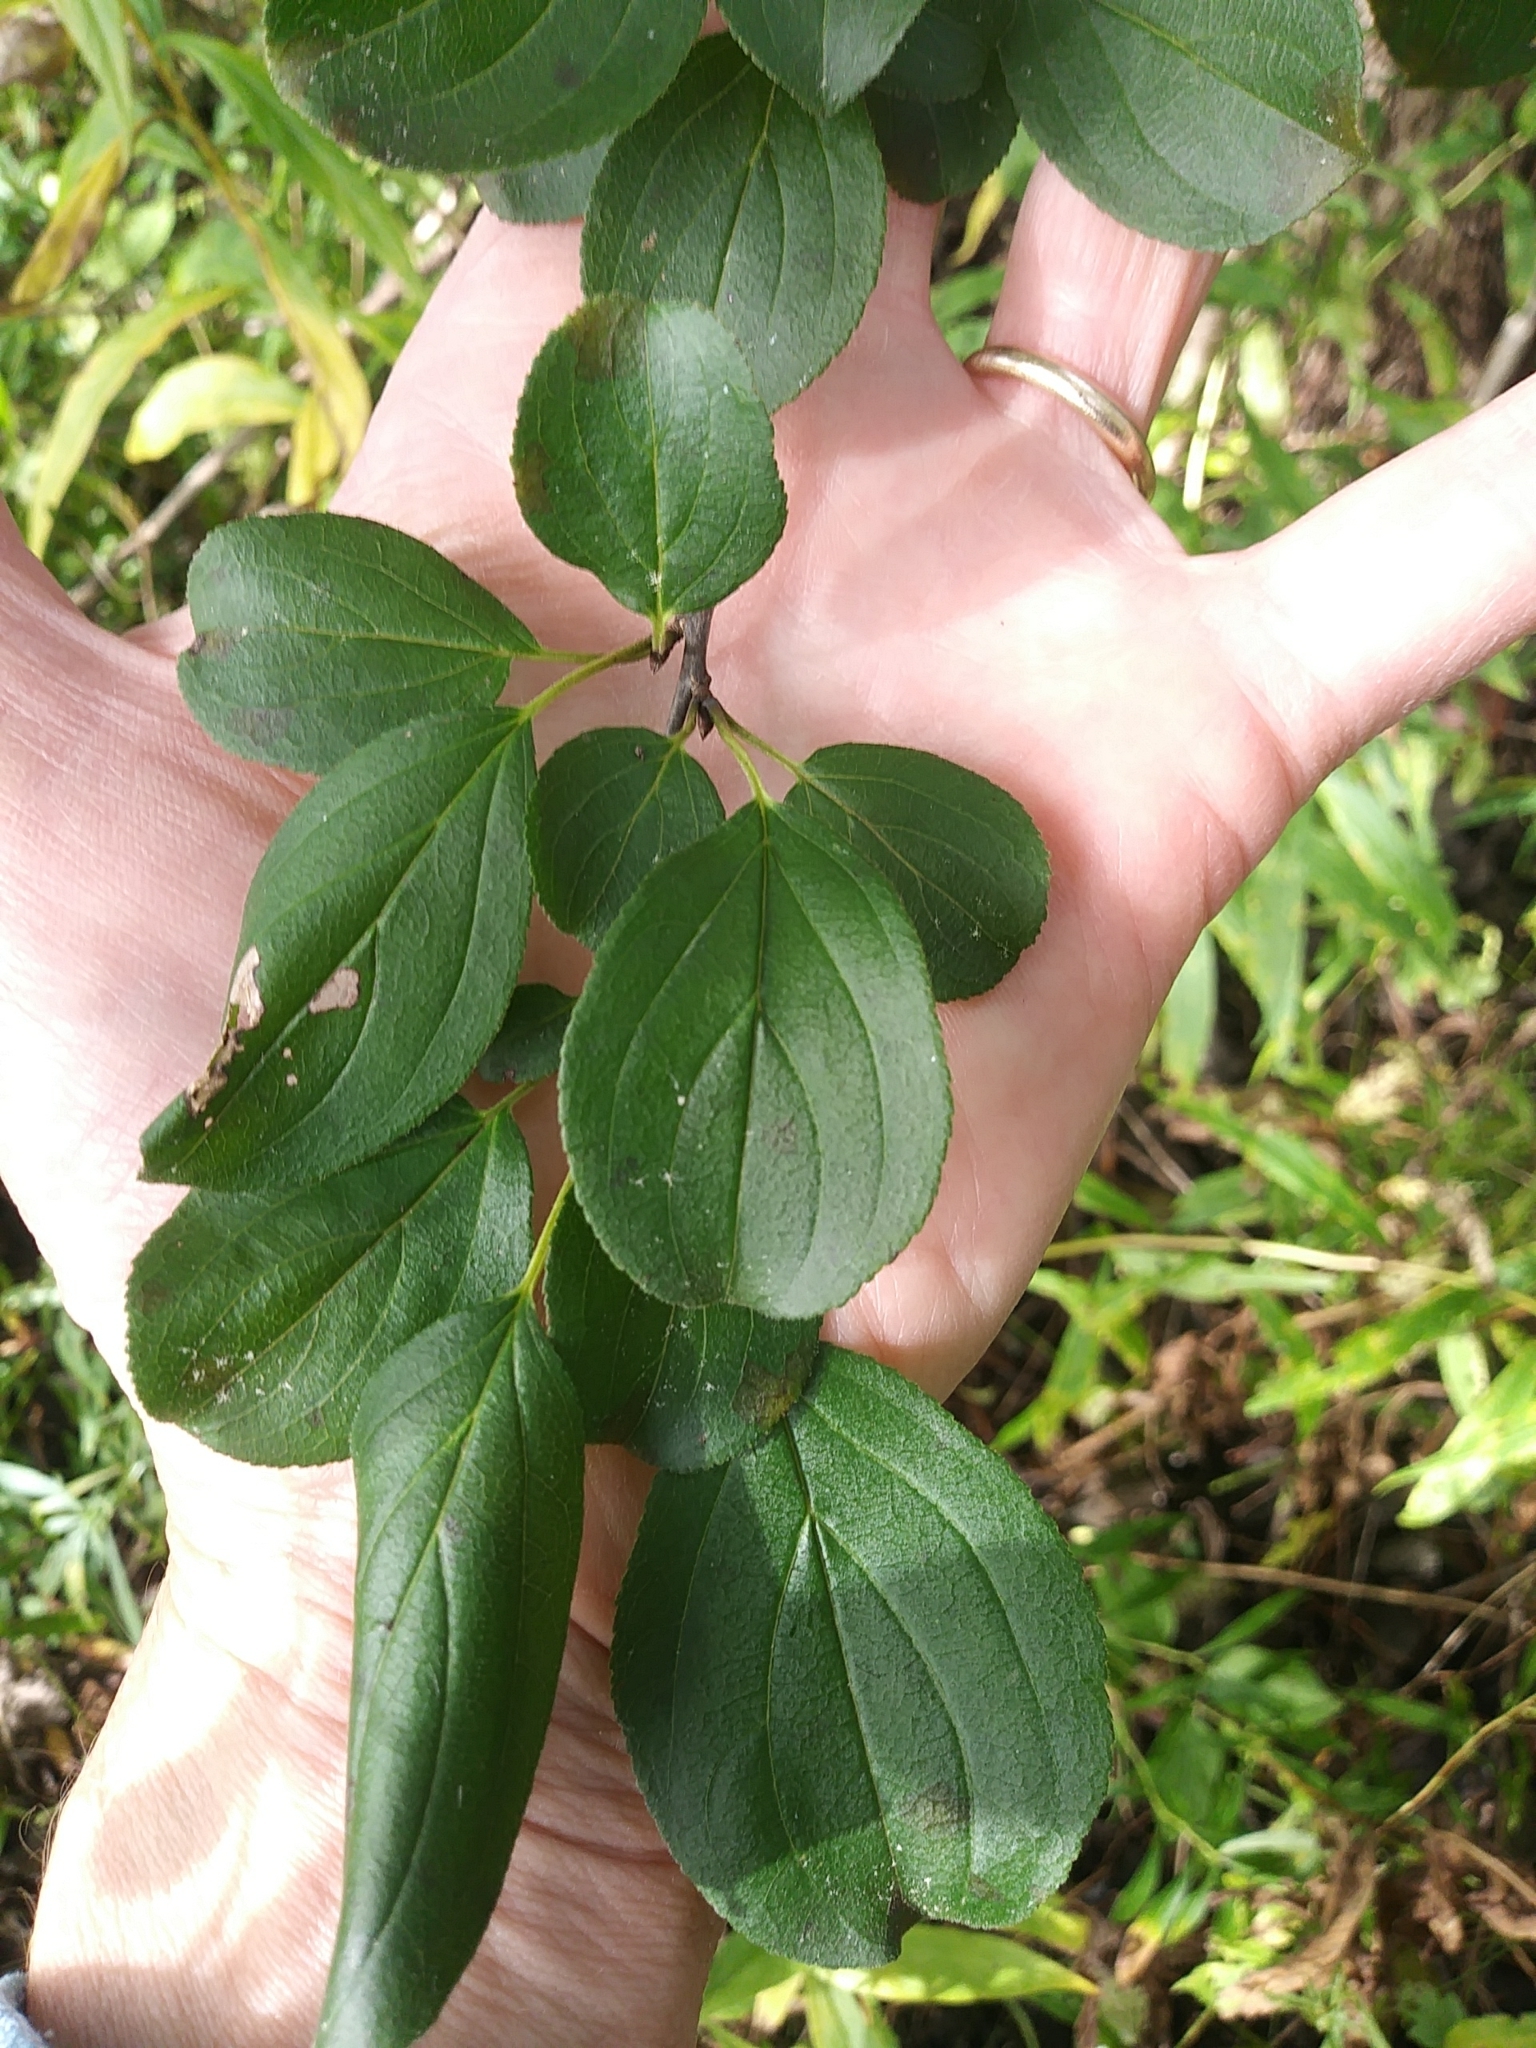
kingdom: Plantae
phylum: Tracheophyta
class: Magnoliopsida
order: Rosales
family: Rhamnaceae
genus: Rhamnus
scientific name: Rhamnus cathartica
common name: Common buckthorn
